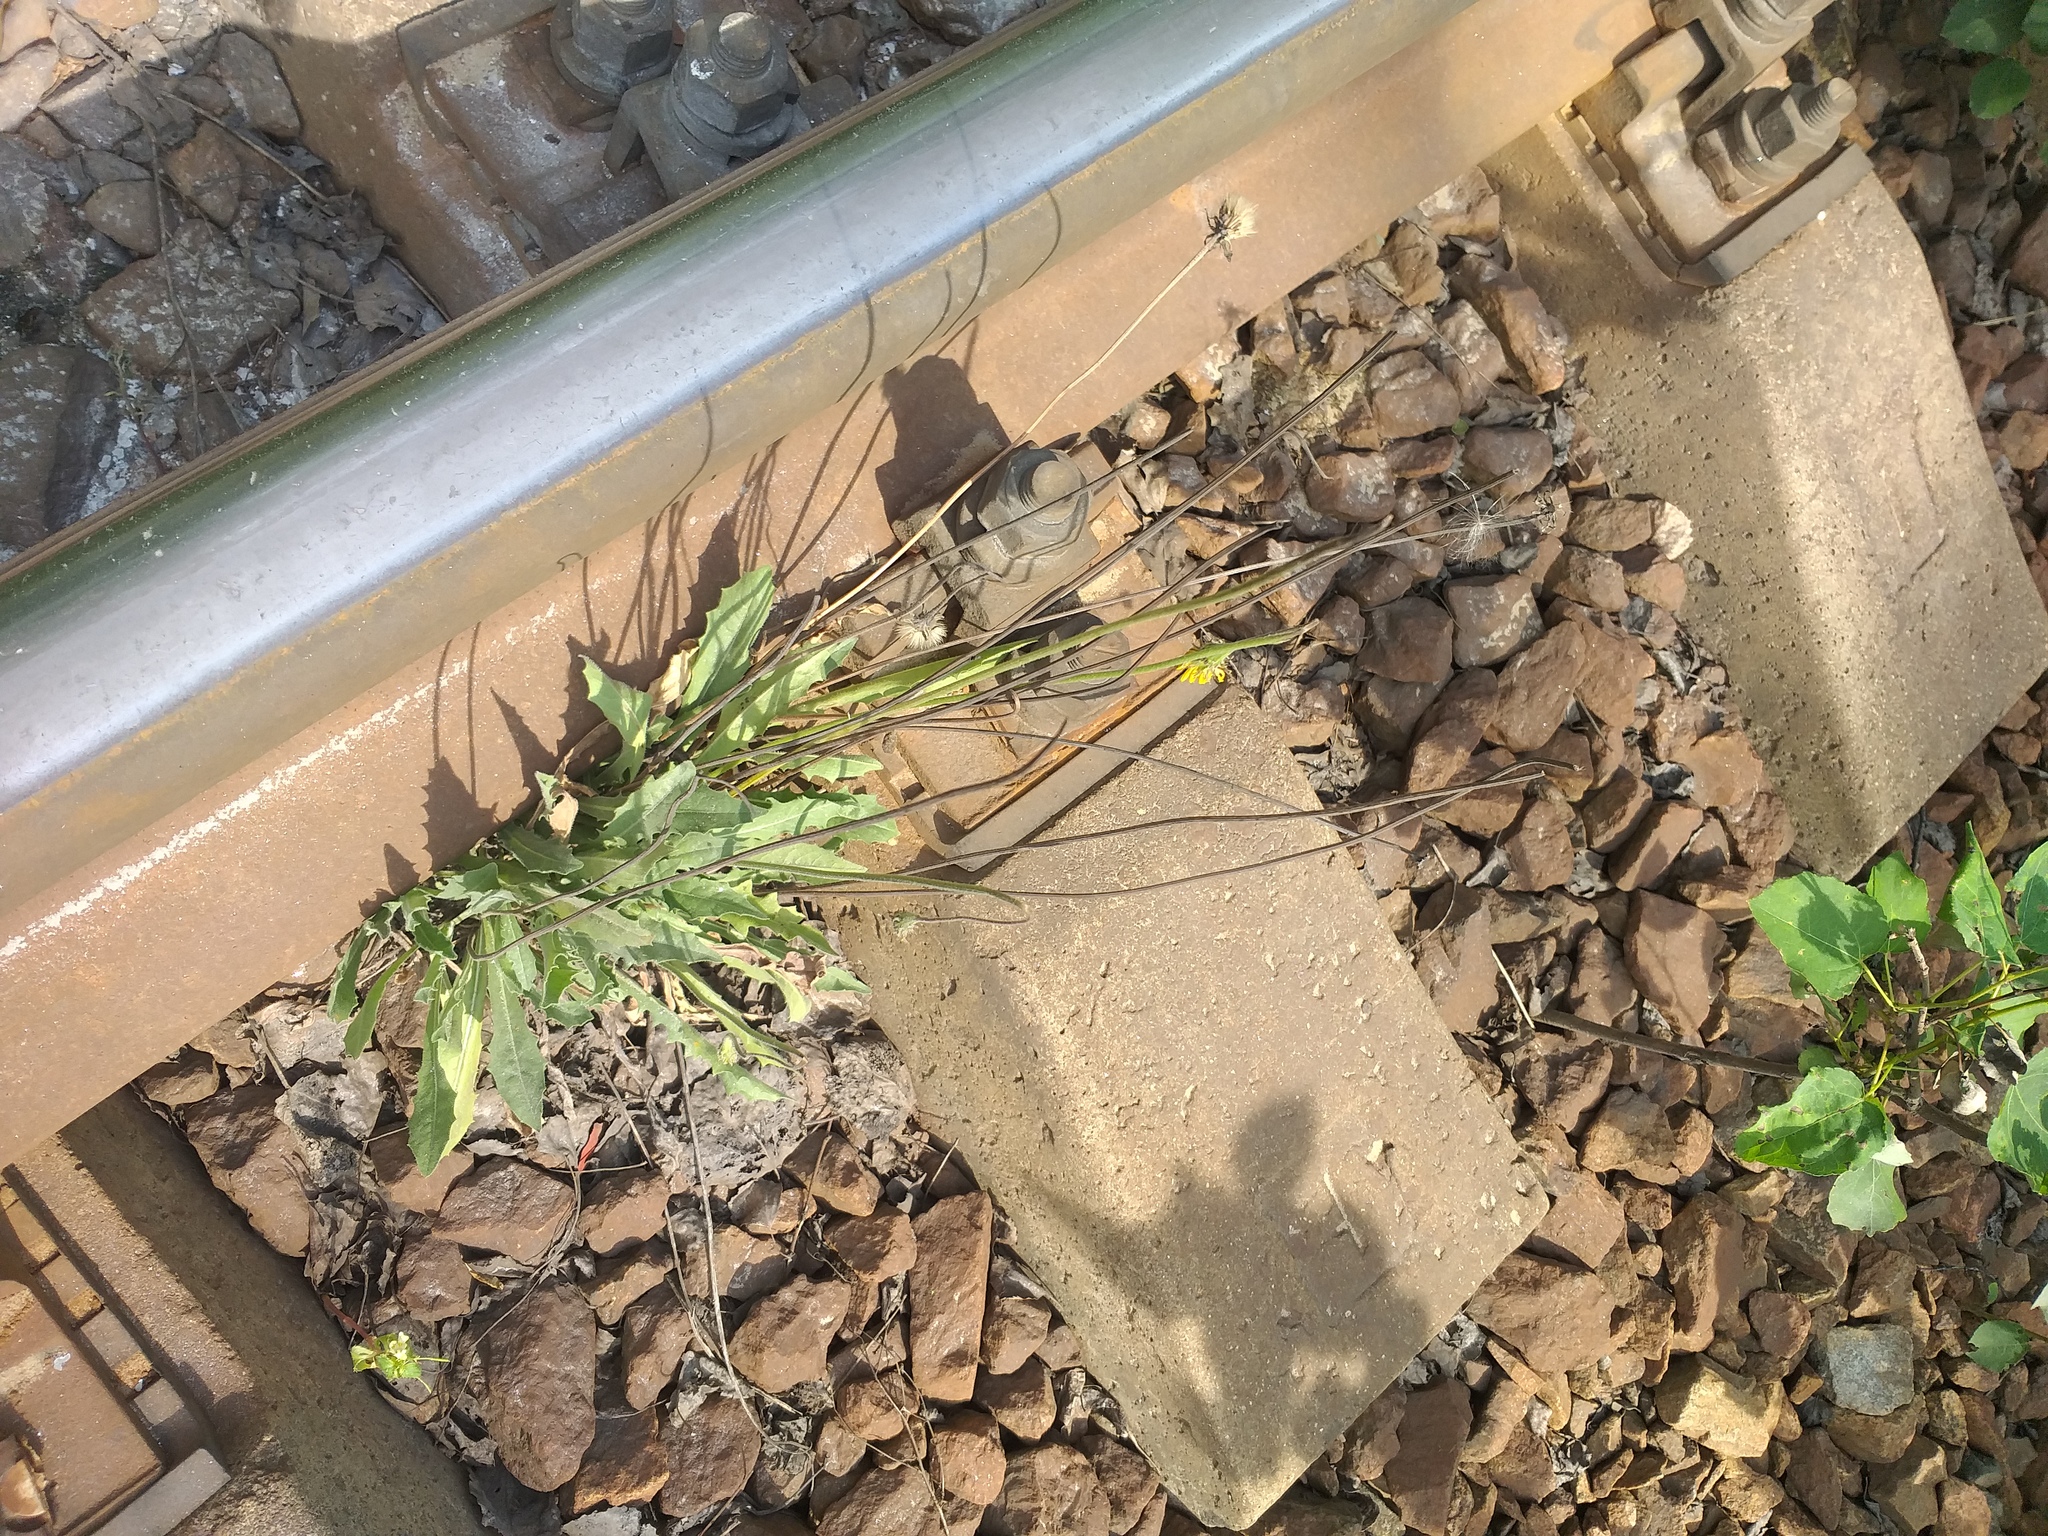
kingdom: Plantae
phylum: Tracheophyta
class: Magnoliopsida
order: Asterales
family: Asteraceae
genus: Leontodon
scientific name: Leontodon hispidus
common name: Rough hawkbit
